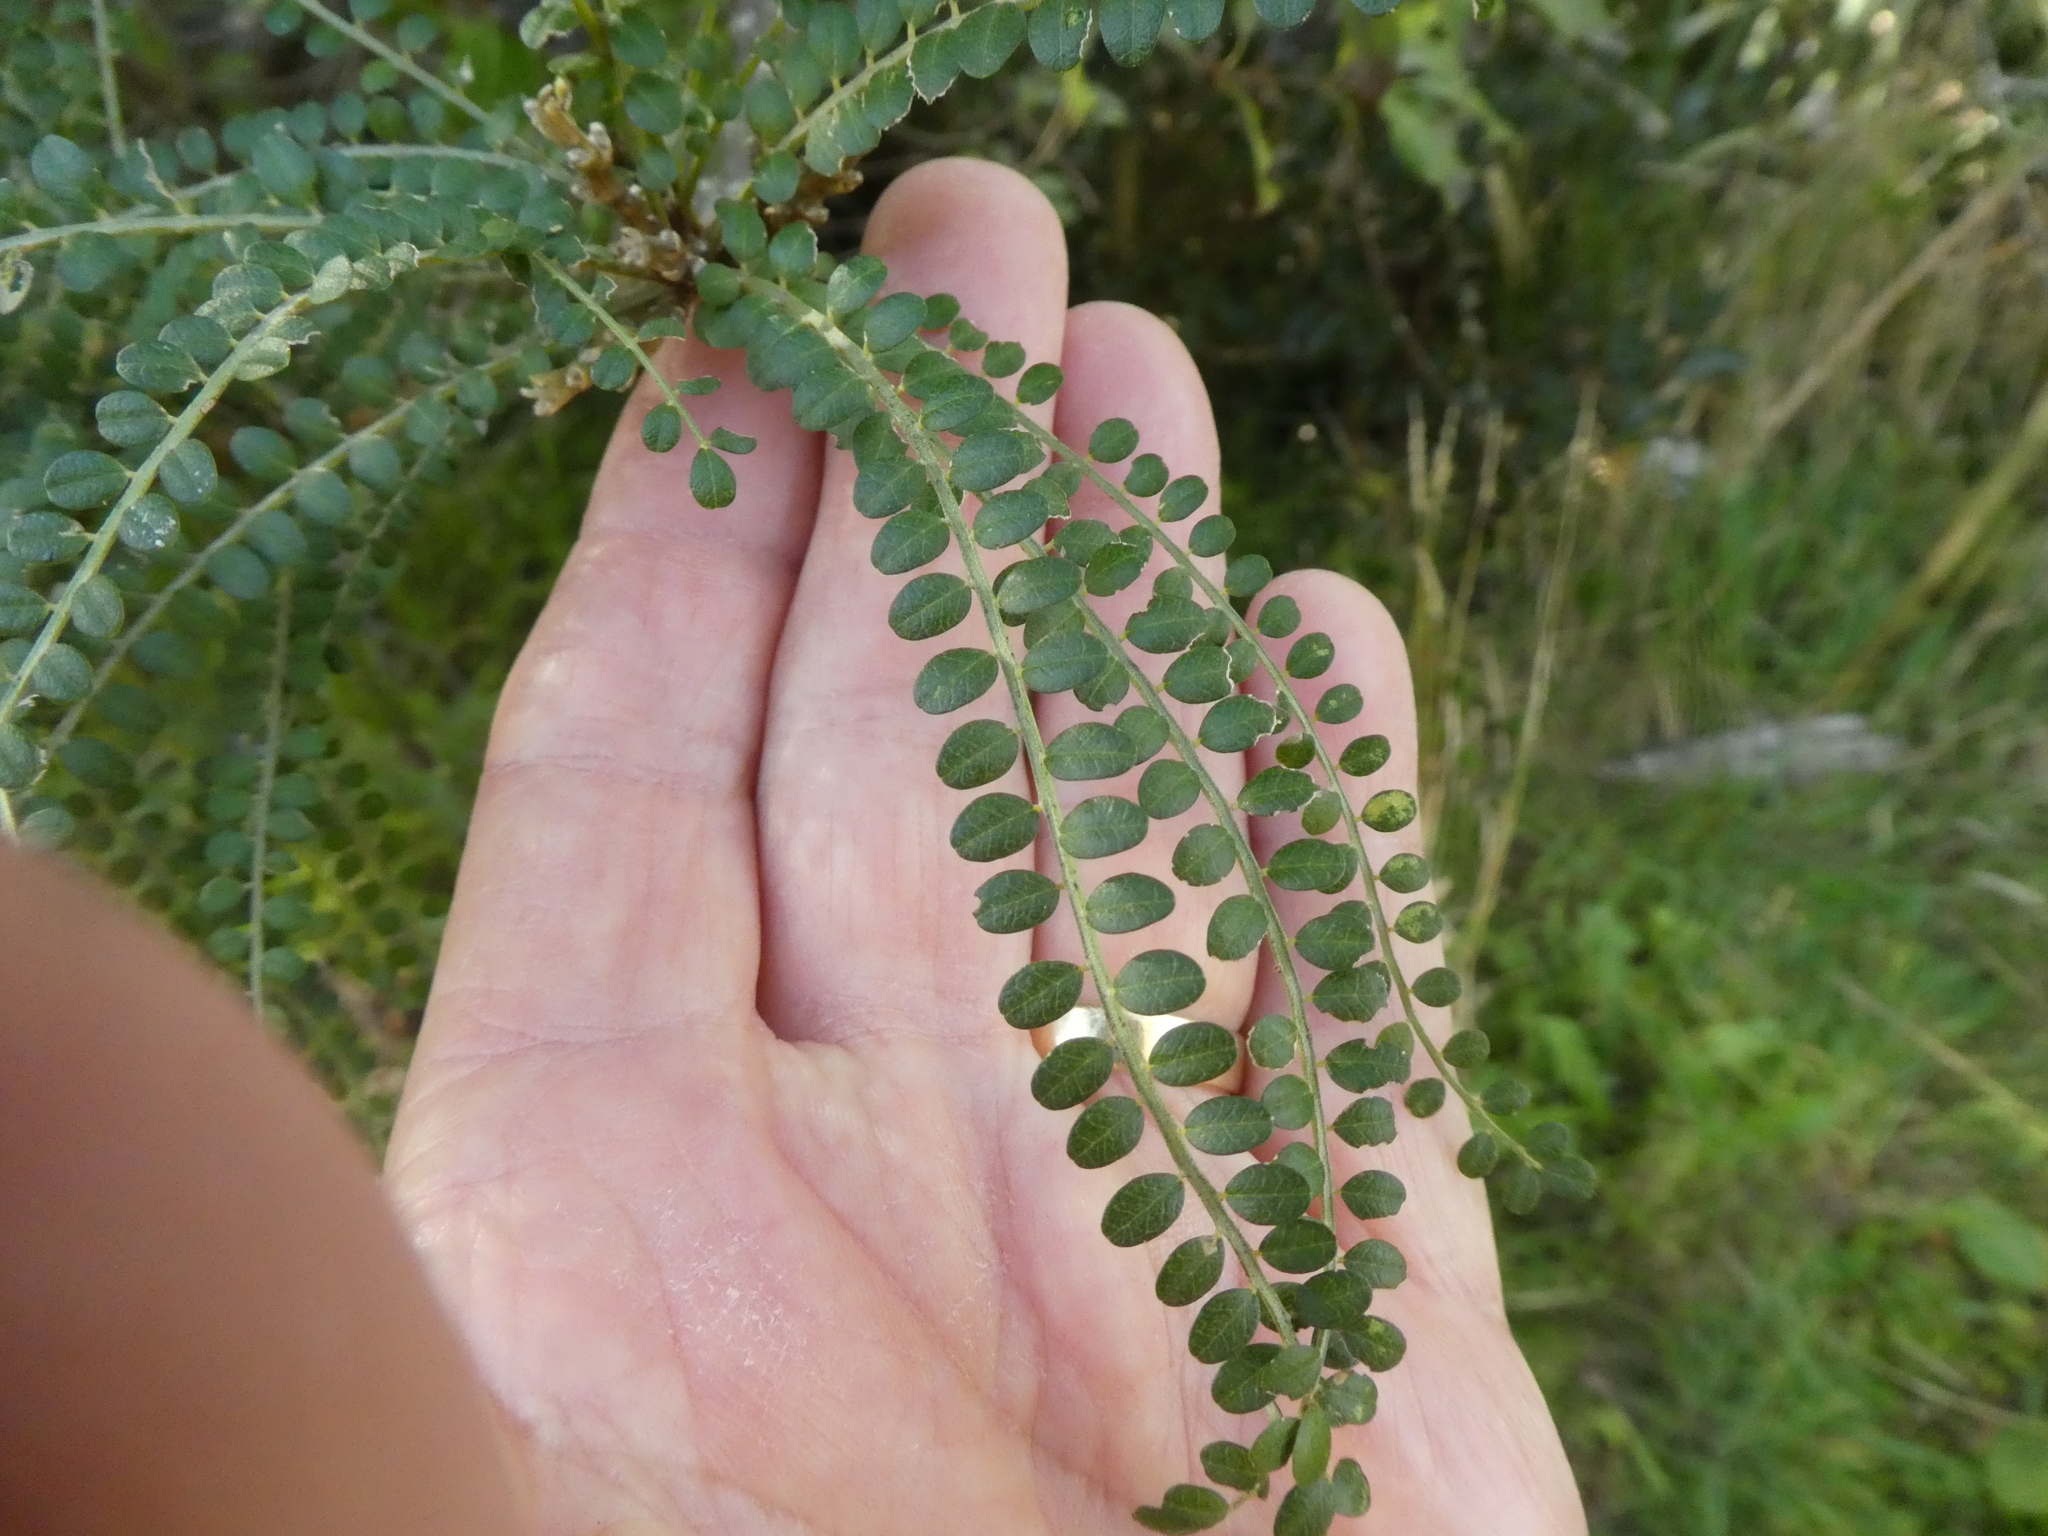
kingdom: Plantae
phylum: Tracheophyta
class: Magnoliopsida
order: Fabales
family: Fabaceae
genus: Sophora
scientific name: Sophora microphylla
